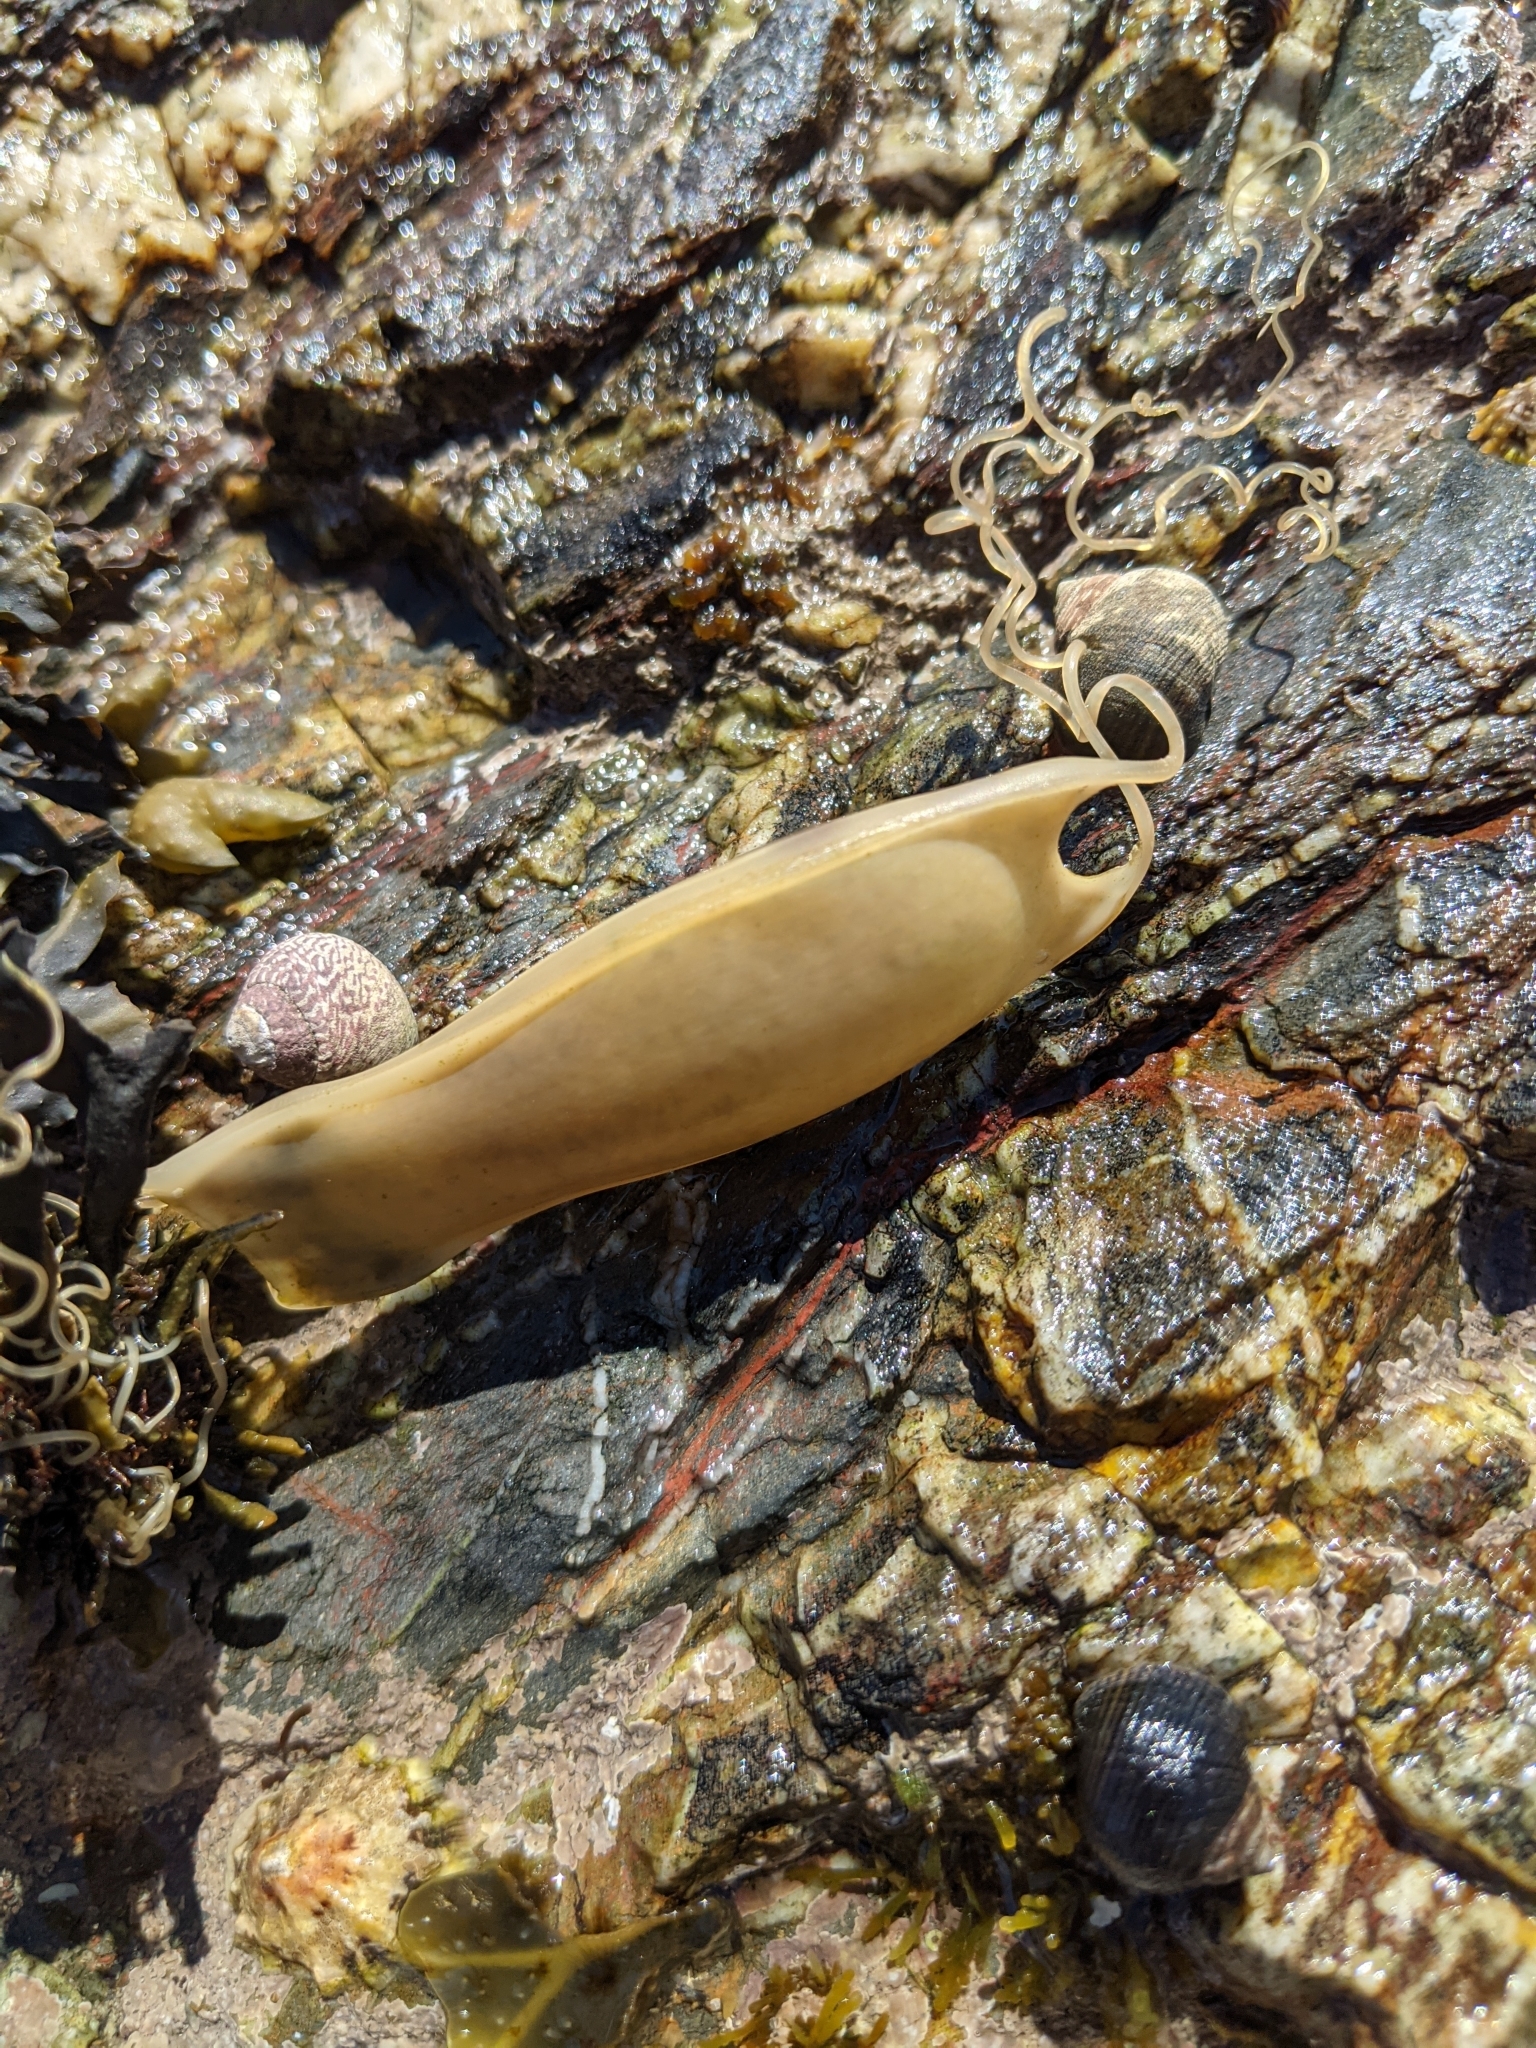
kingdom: Animalia
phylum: Chordata
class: Elasmobranchii
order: Carcharhiniformes
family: Scyliorhinidae
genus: Scyliorhinus
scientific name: Scyliorhinus canicula
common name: Lesser spotted dogfish
